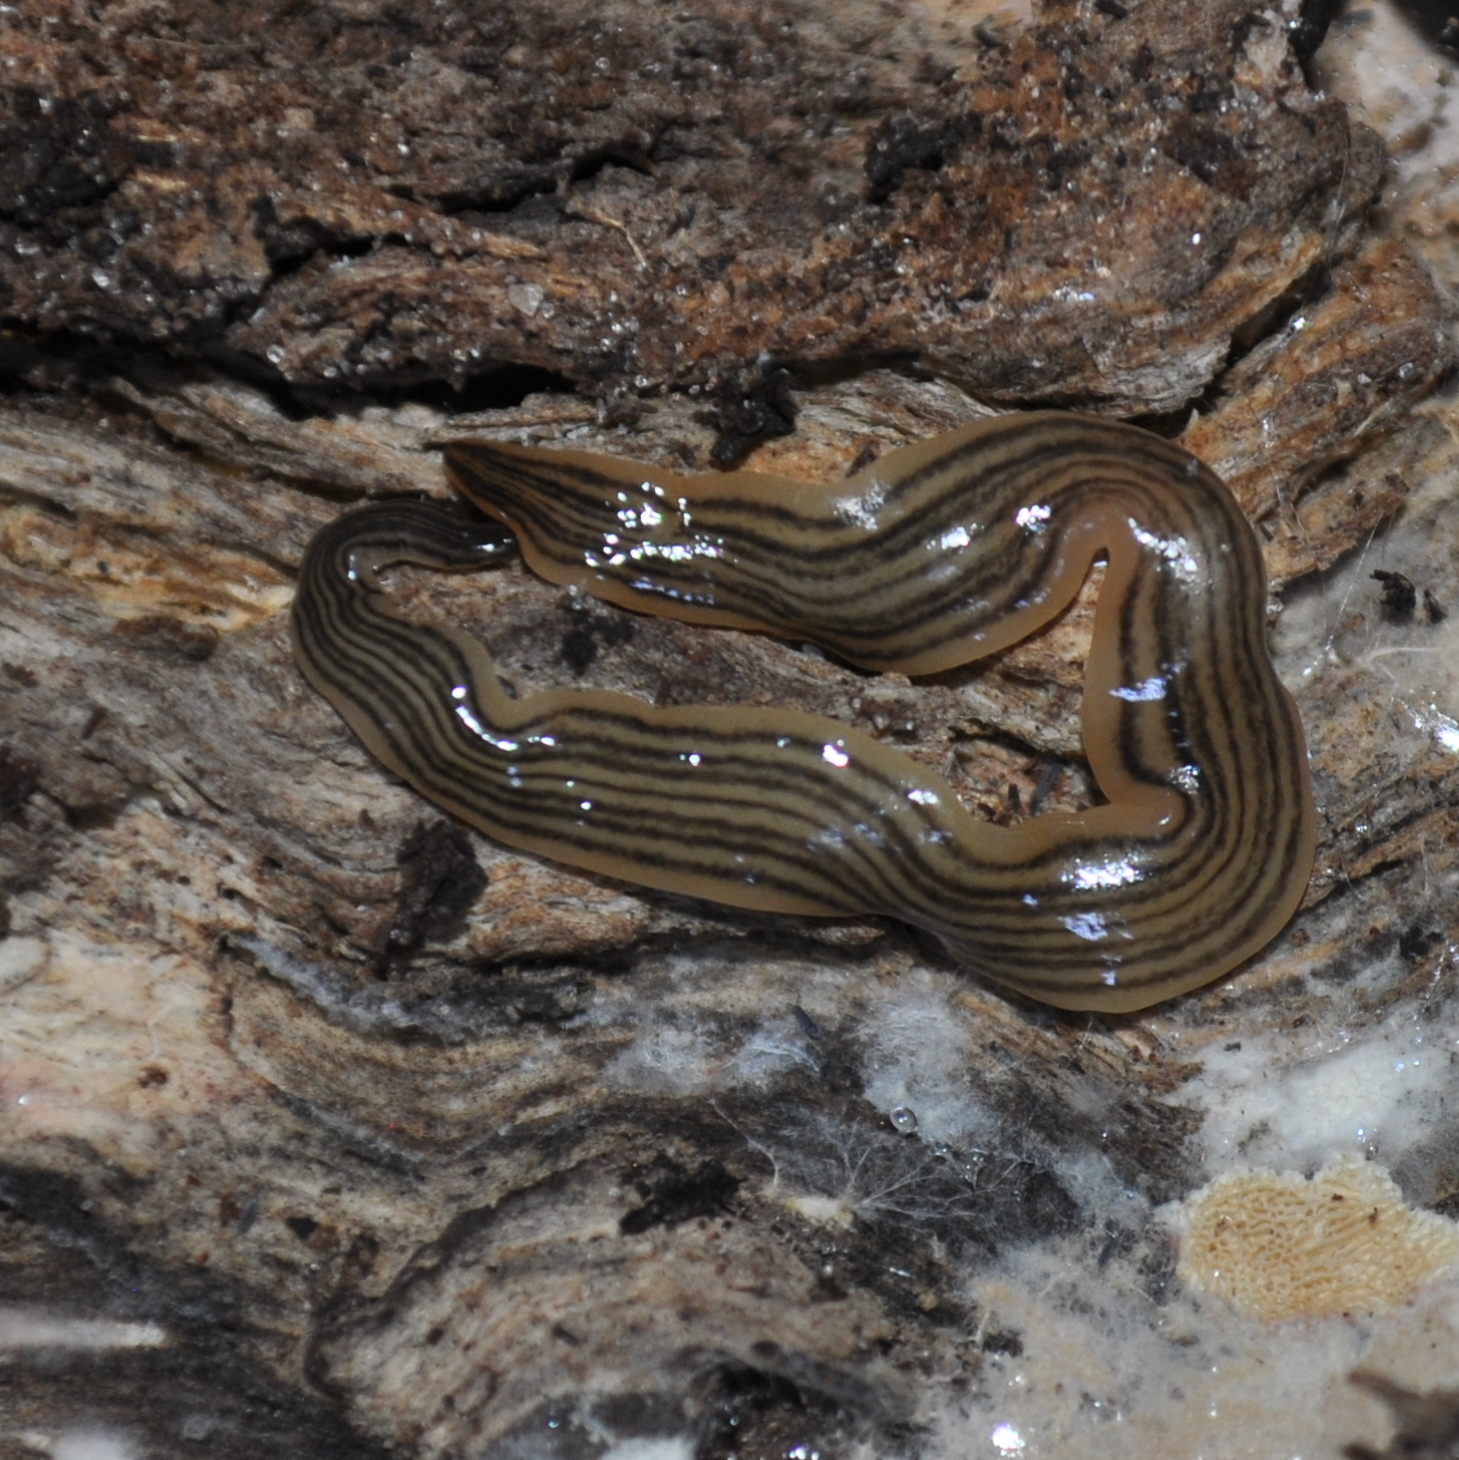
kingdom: Animalia
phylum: Platyhelminthes
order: Tricladida
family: Geoplanidae
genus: Luteostriata
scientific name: Luteostriata abundans
